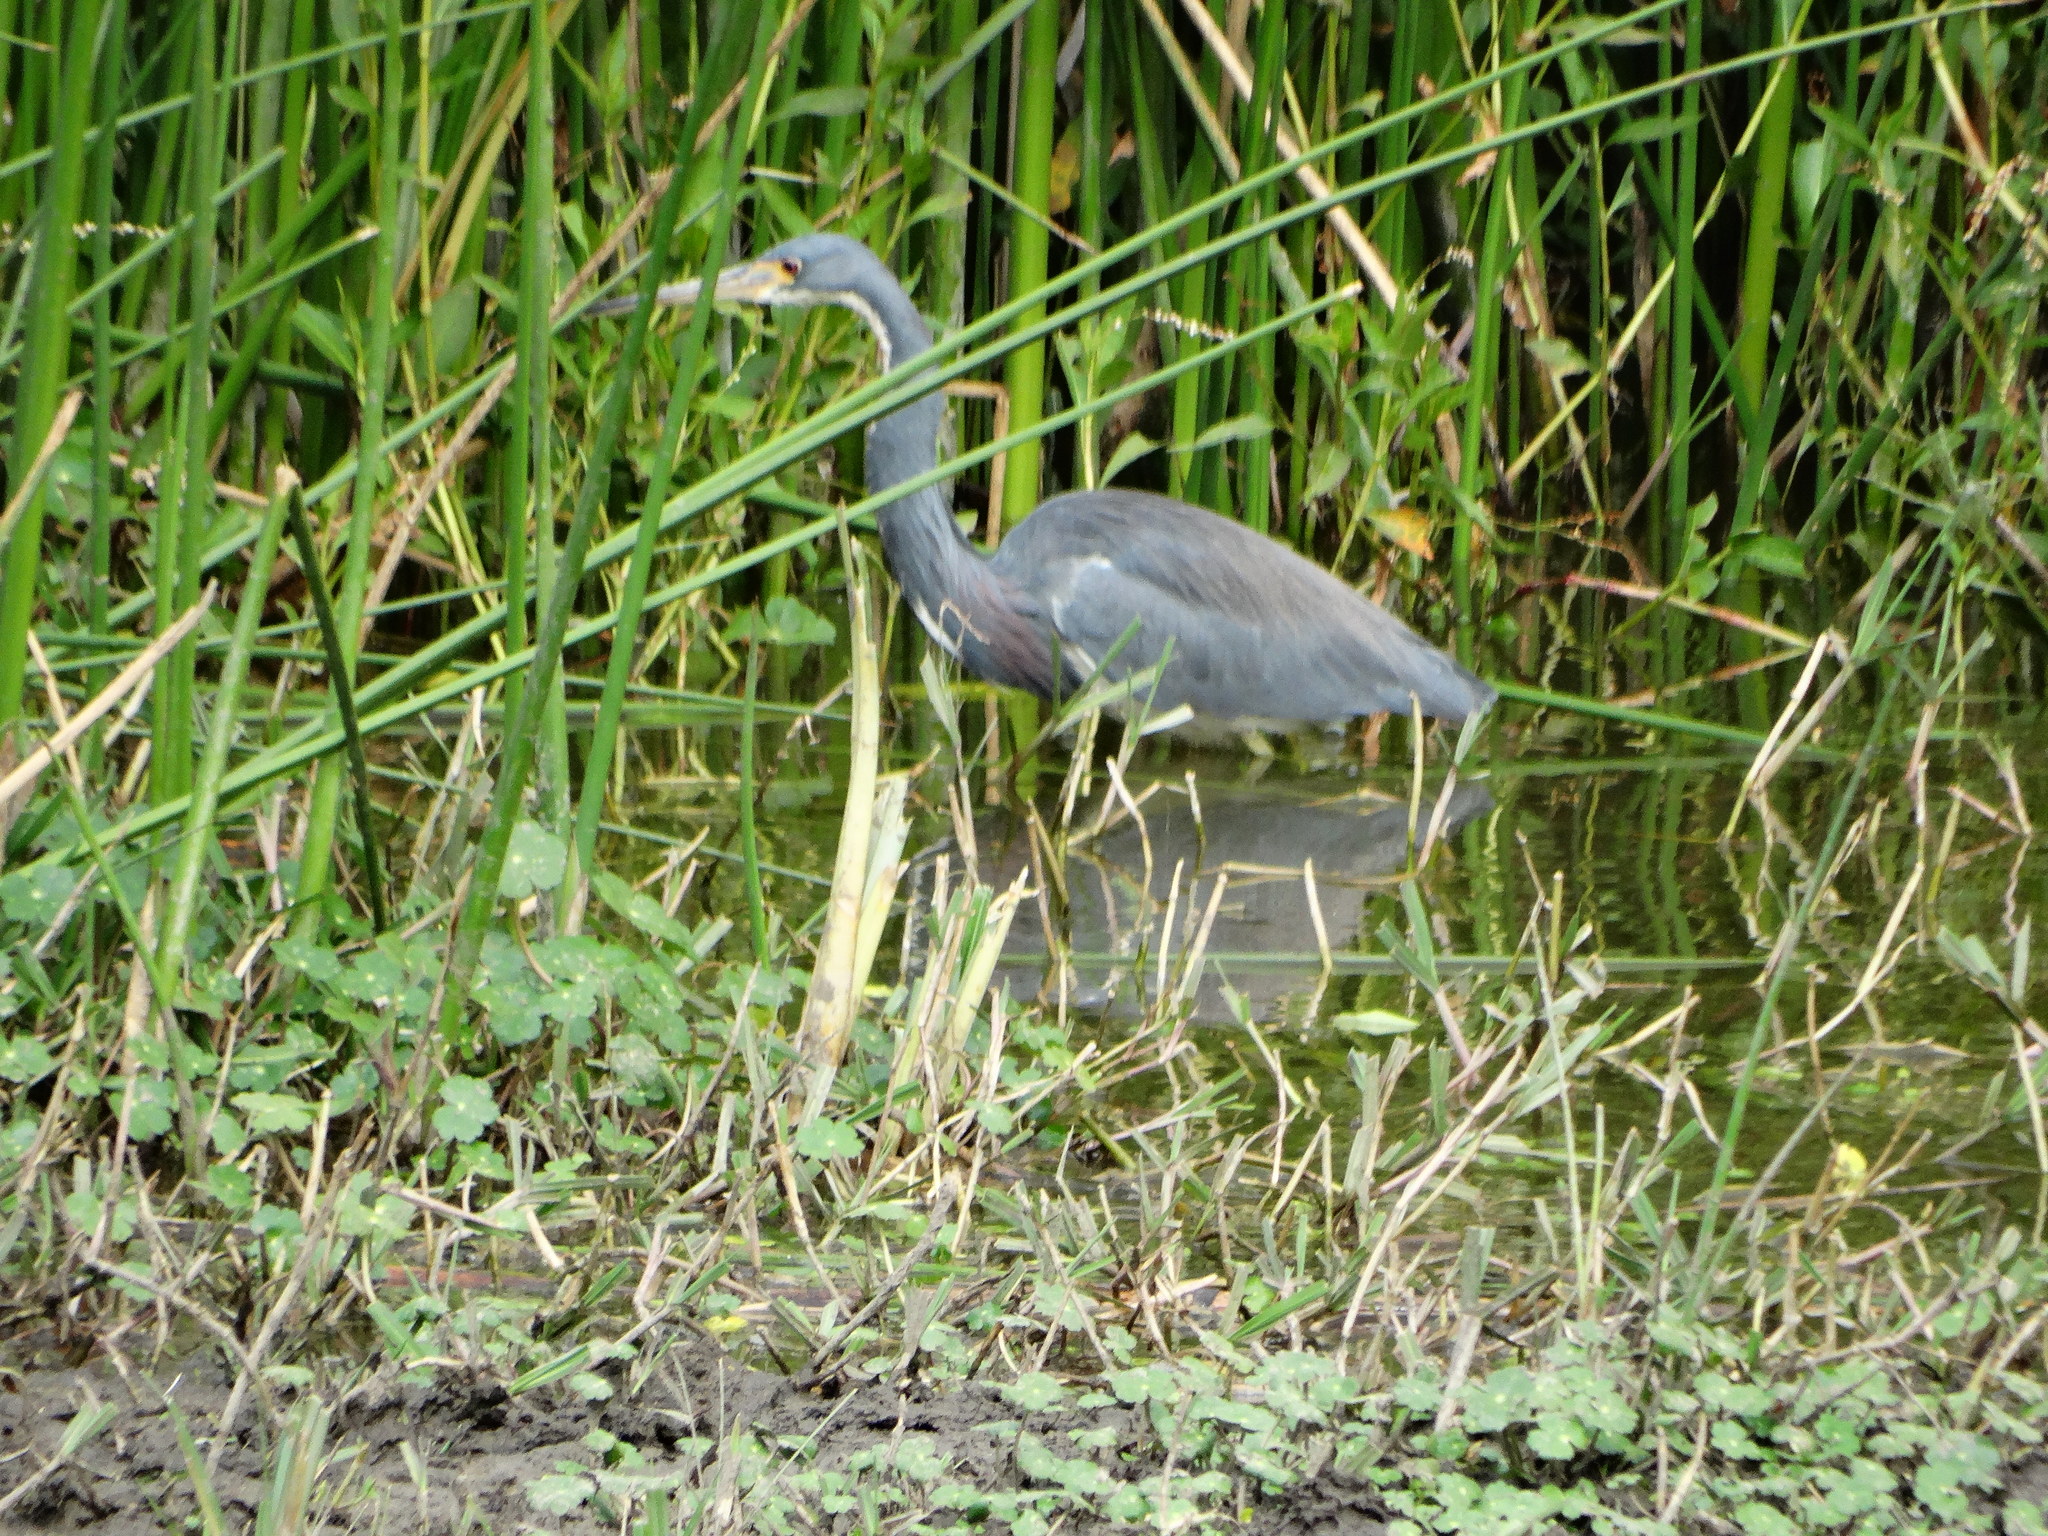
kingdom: Animalia
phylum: Chordata
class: Aves
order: Pelecaniformes
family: Ardeidae
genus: Egretta
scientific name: Egretta tricolor
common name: Tricolored heron
